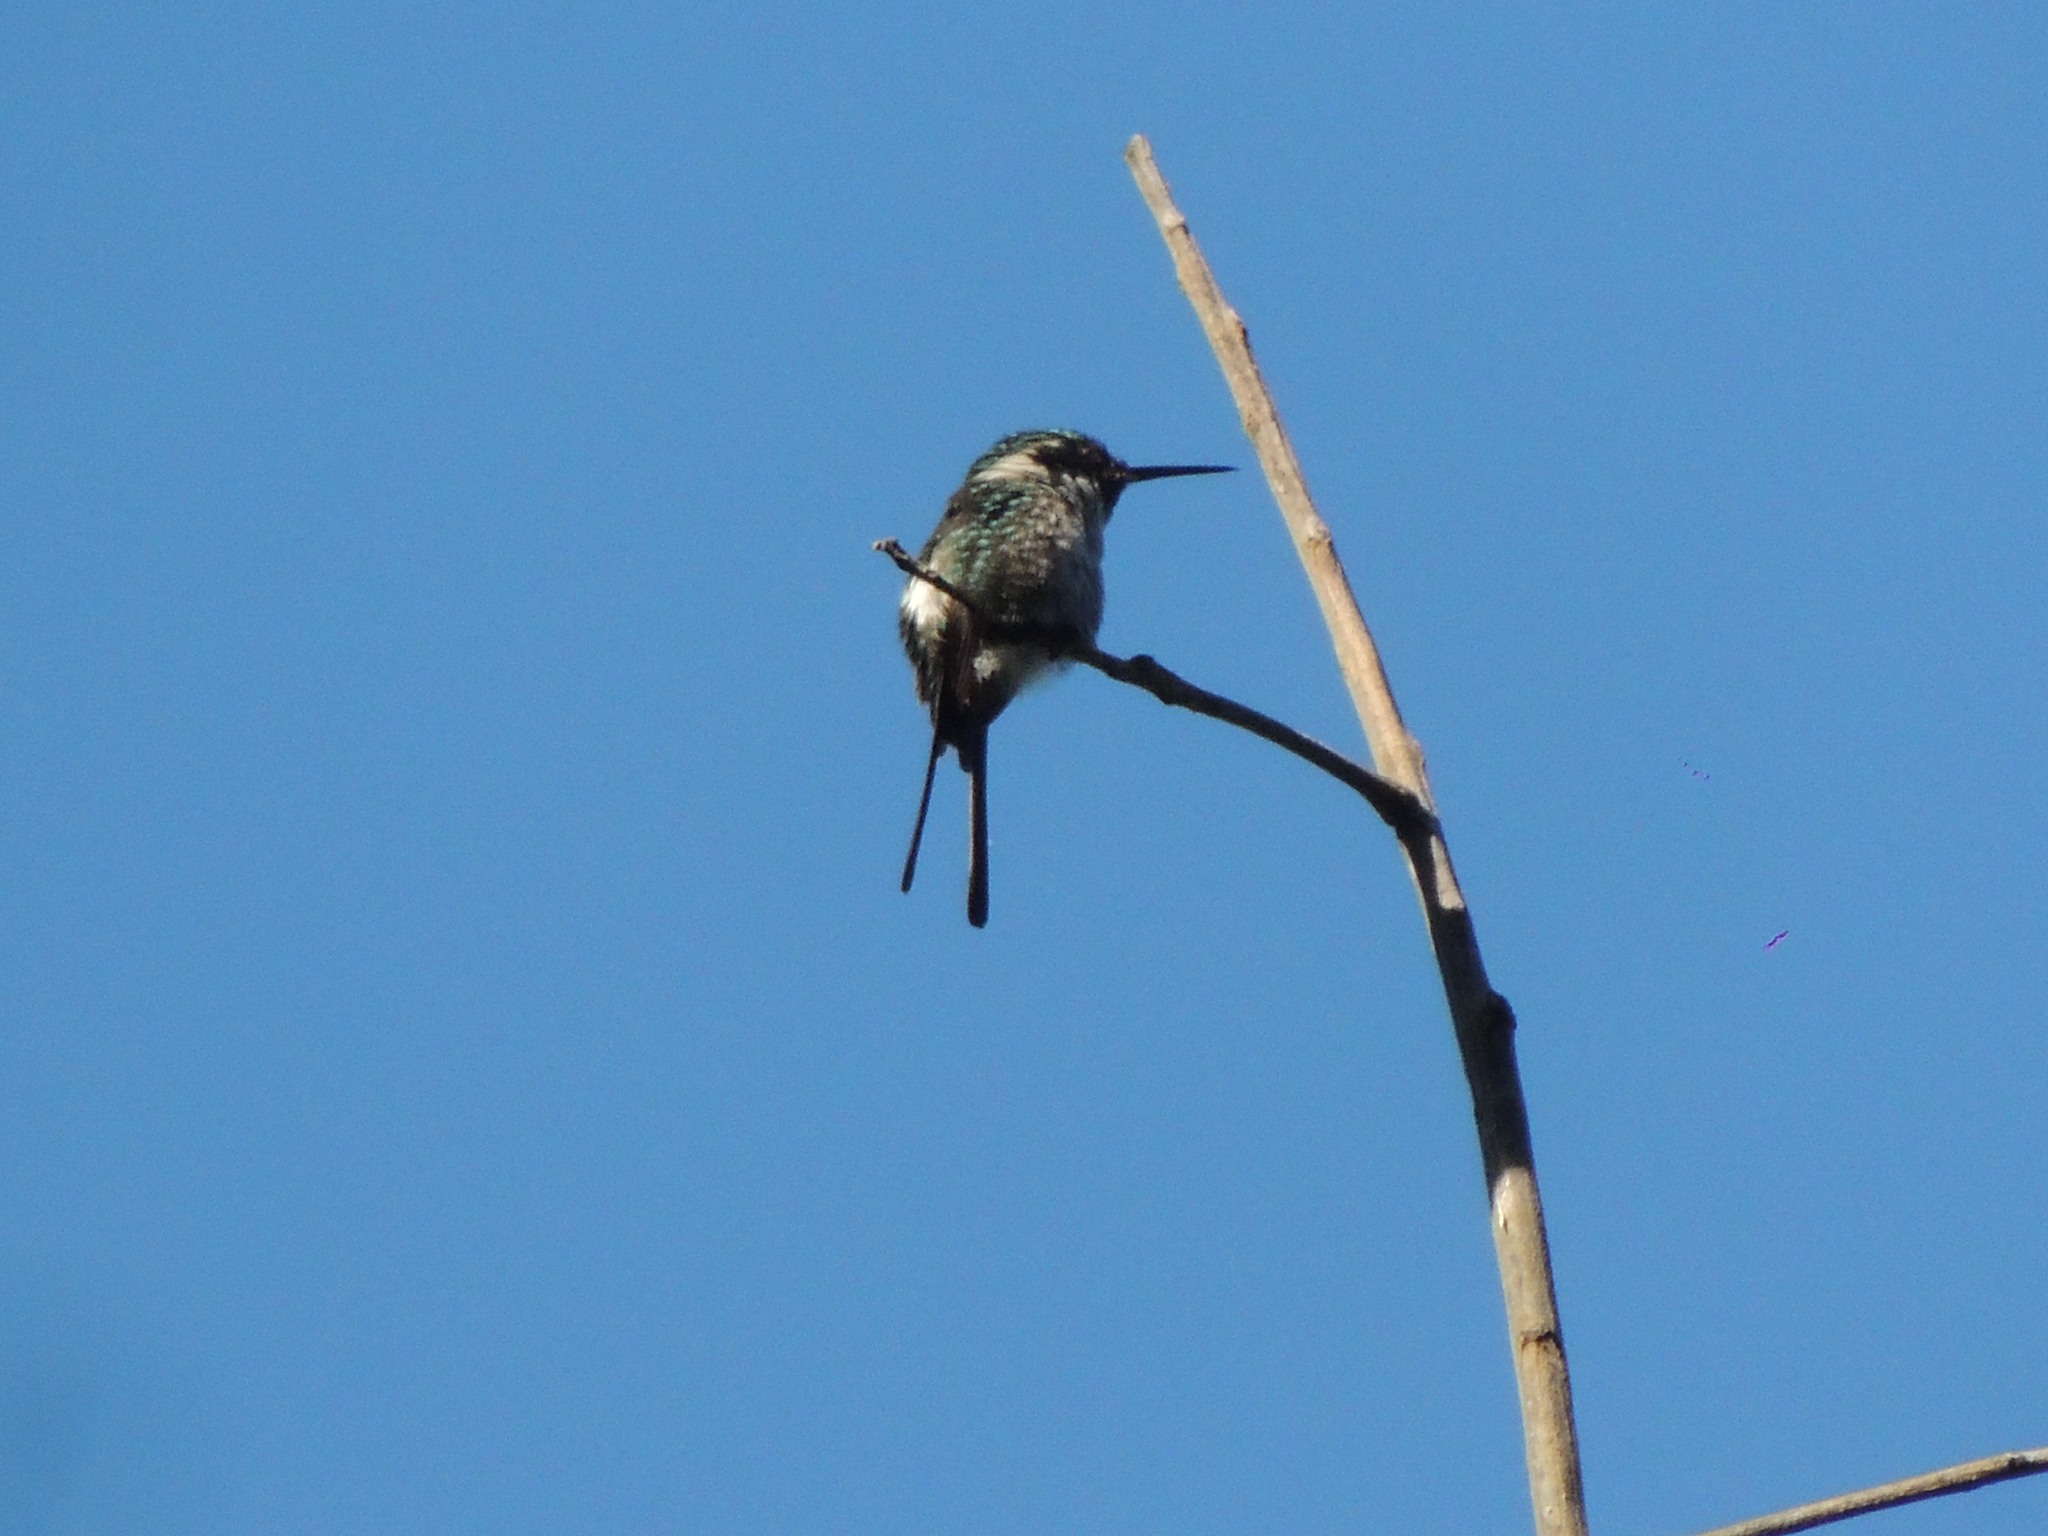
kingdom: Animalia
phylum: Chordata
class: Aves
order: Apodiformes
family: Trochilidae
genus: Microstilbon
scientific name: Microstilbon burmeisteri
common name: Slender-tailed woodstar
